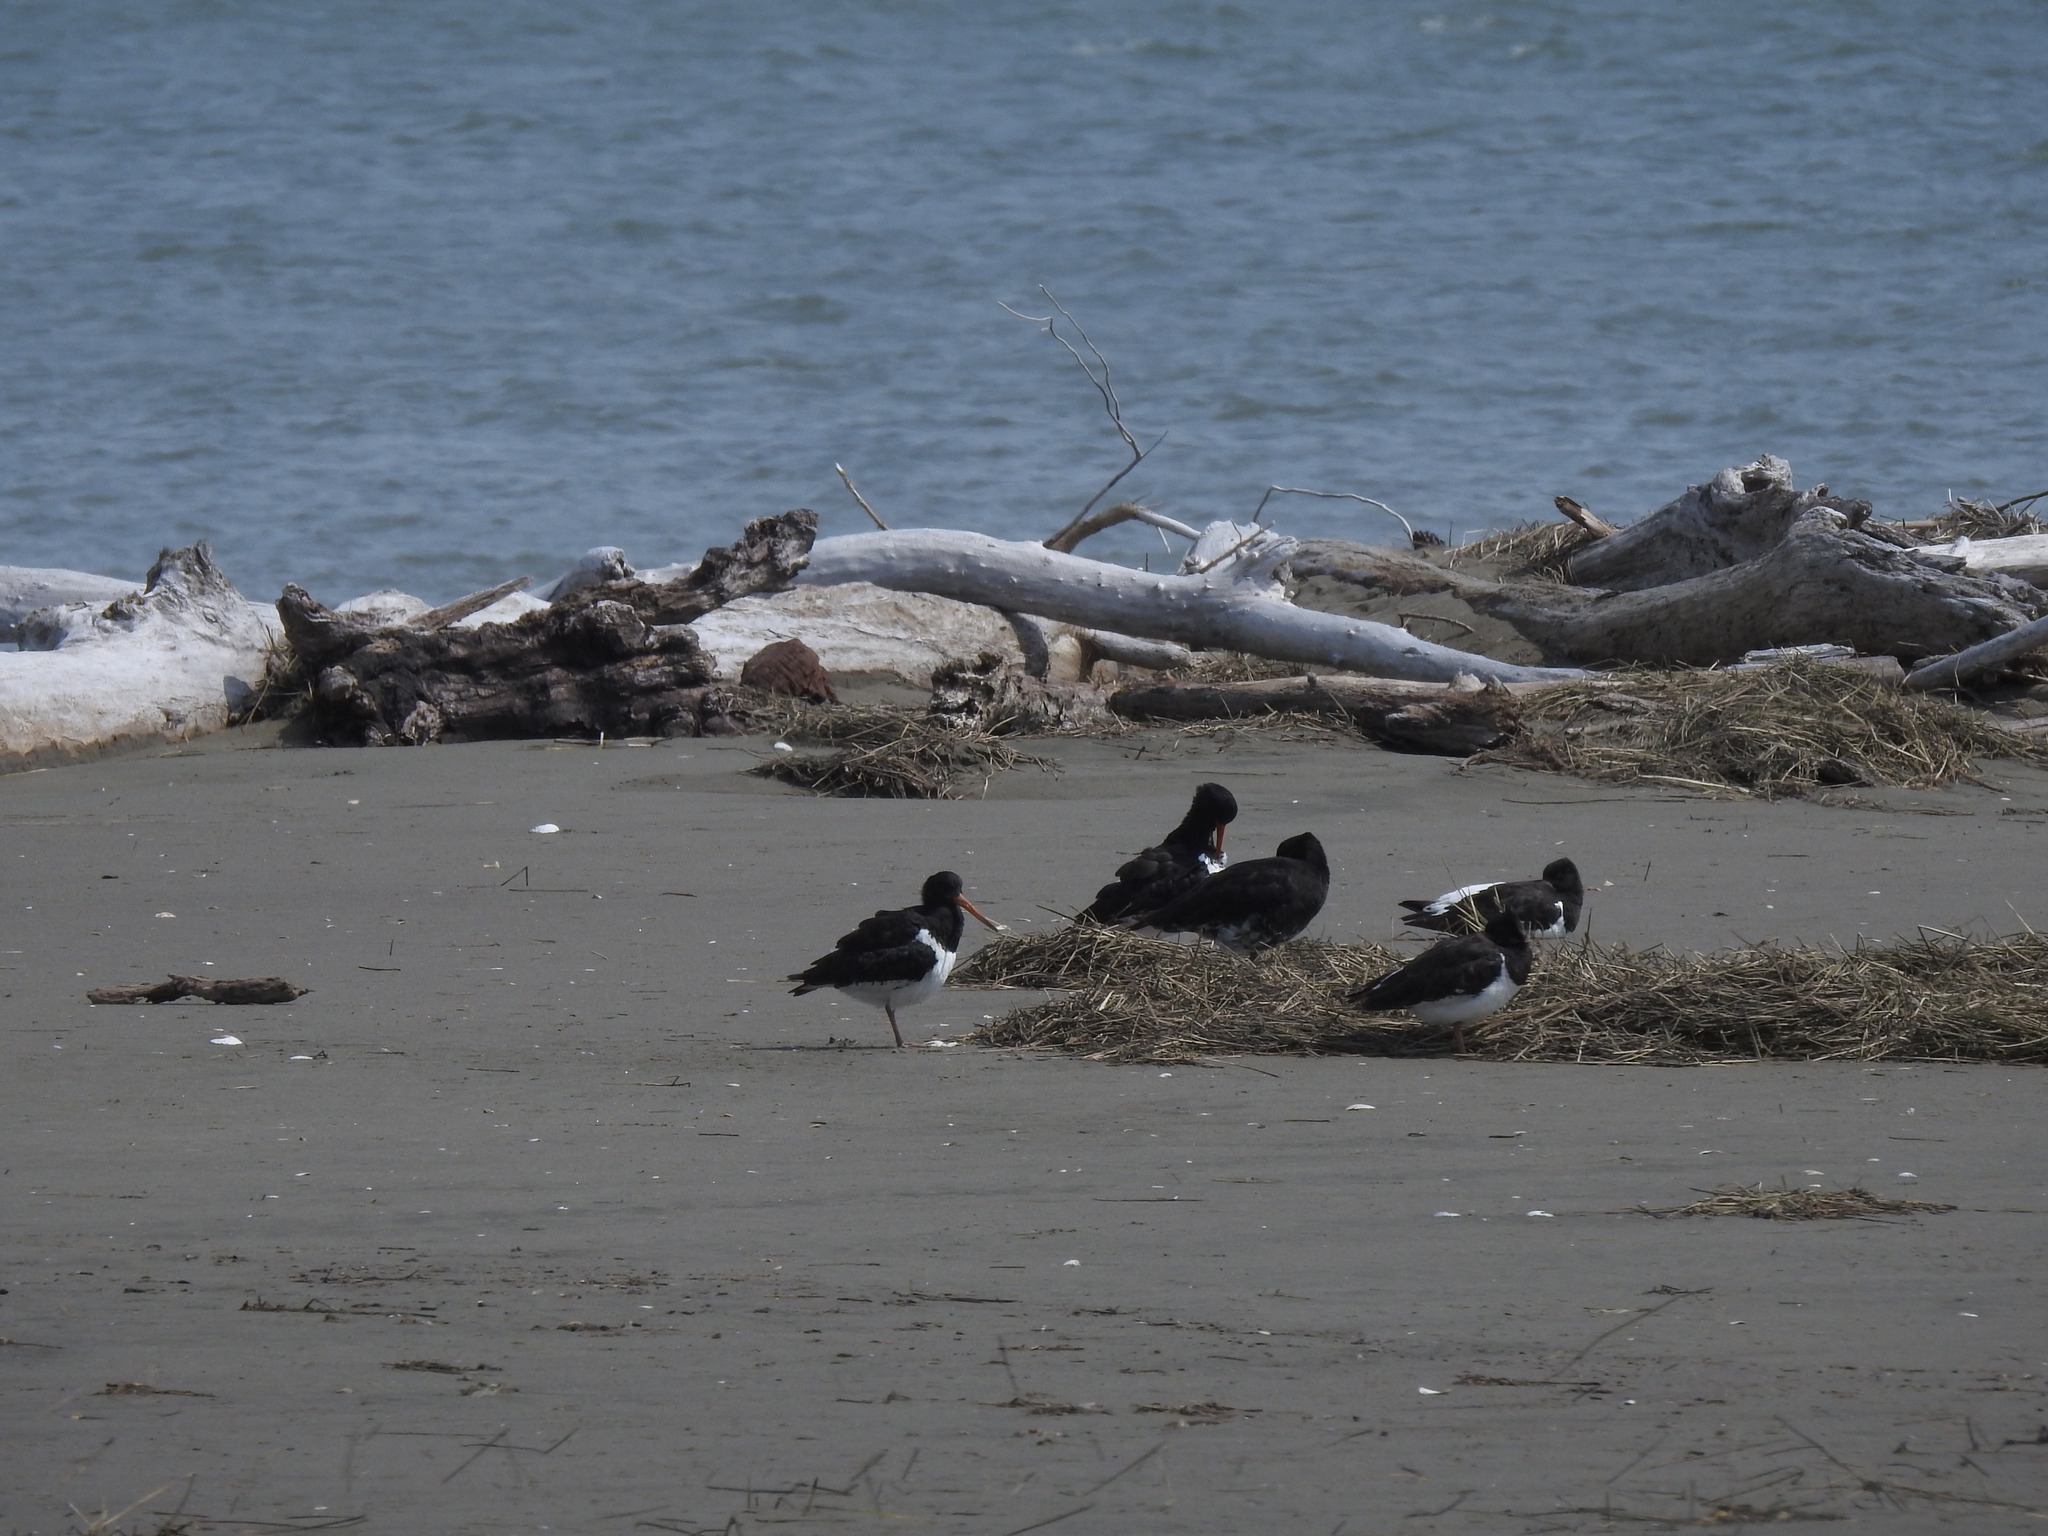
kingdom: Animalia
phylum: Chordata
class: Aves
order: Charadriiformes
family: Haematopodidae
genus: Haematopus
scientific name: Haematopus finschi
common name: South island oystercatcher
